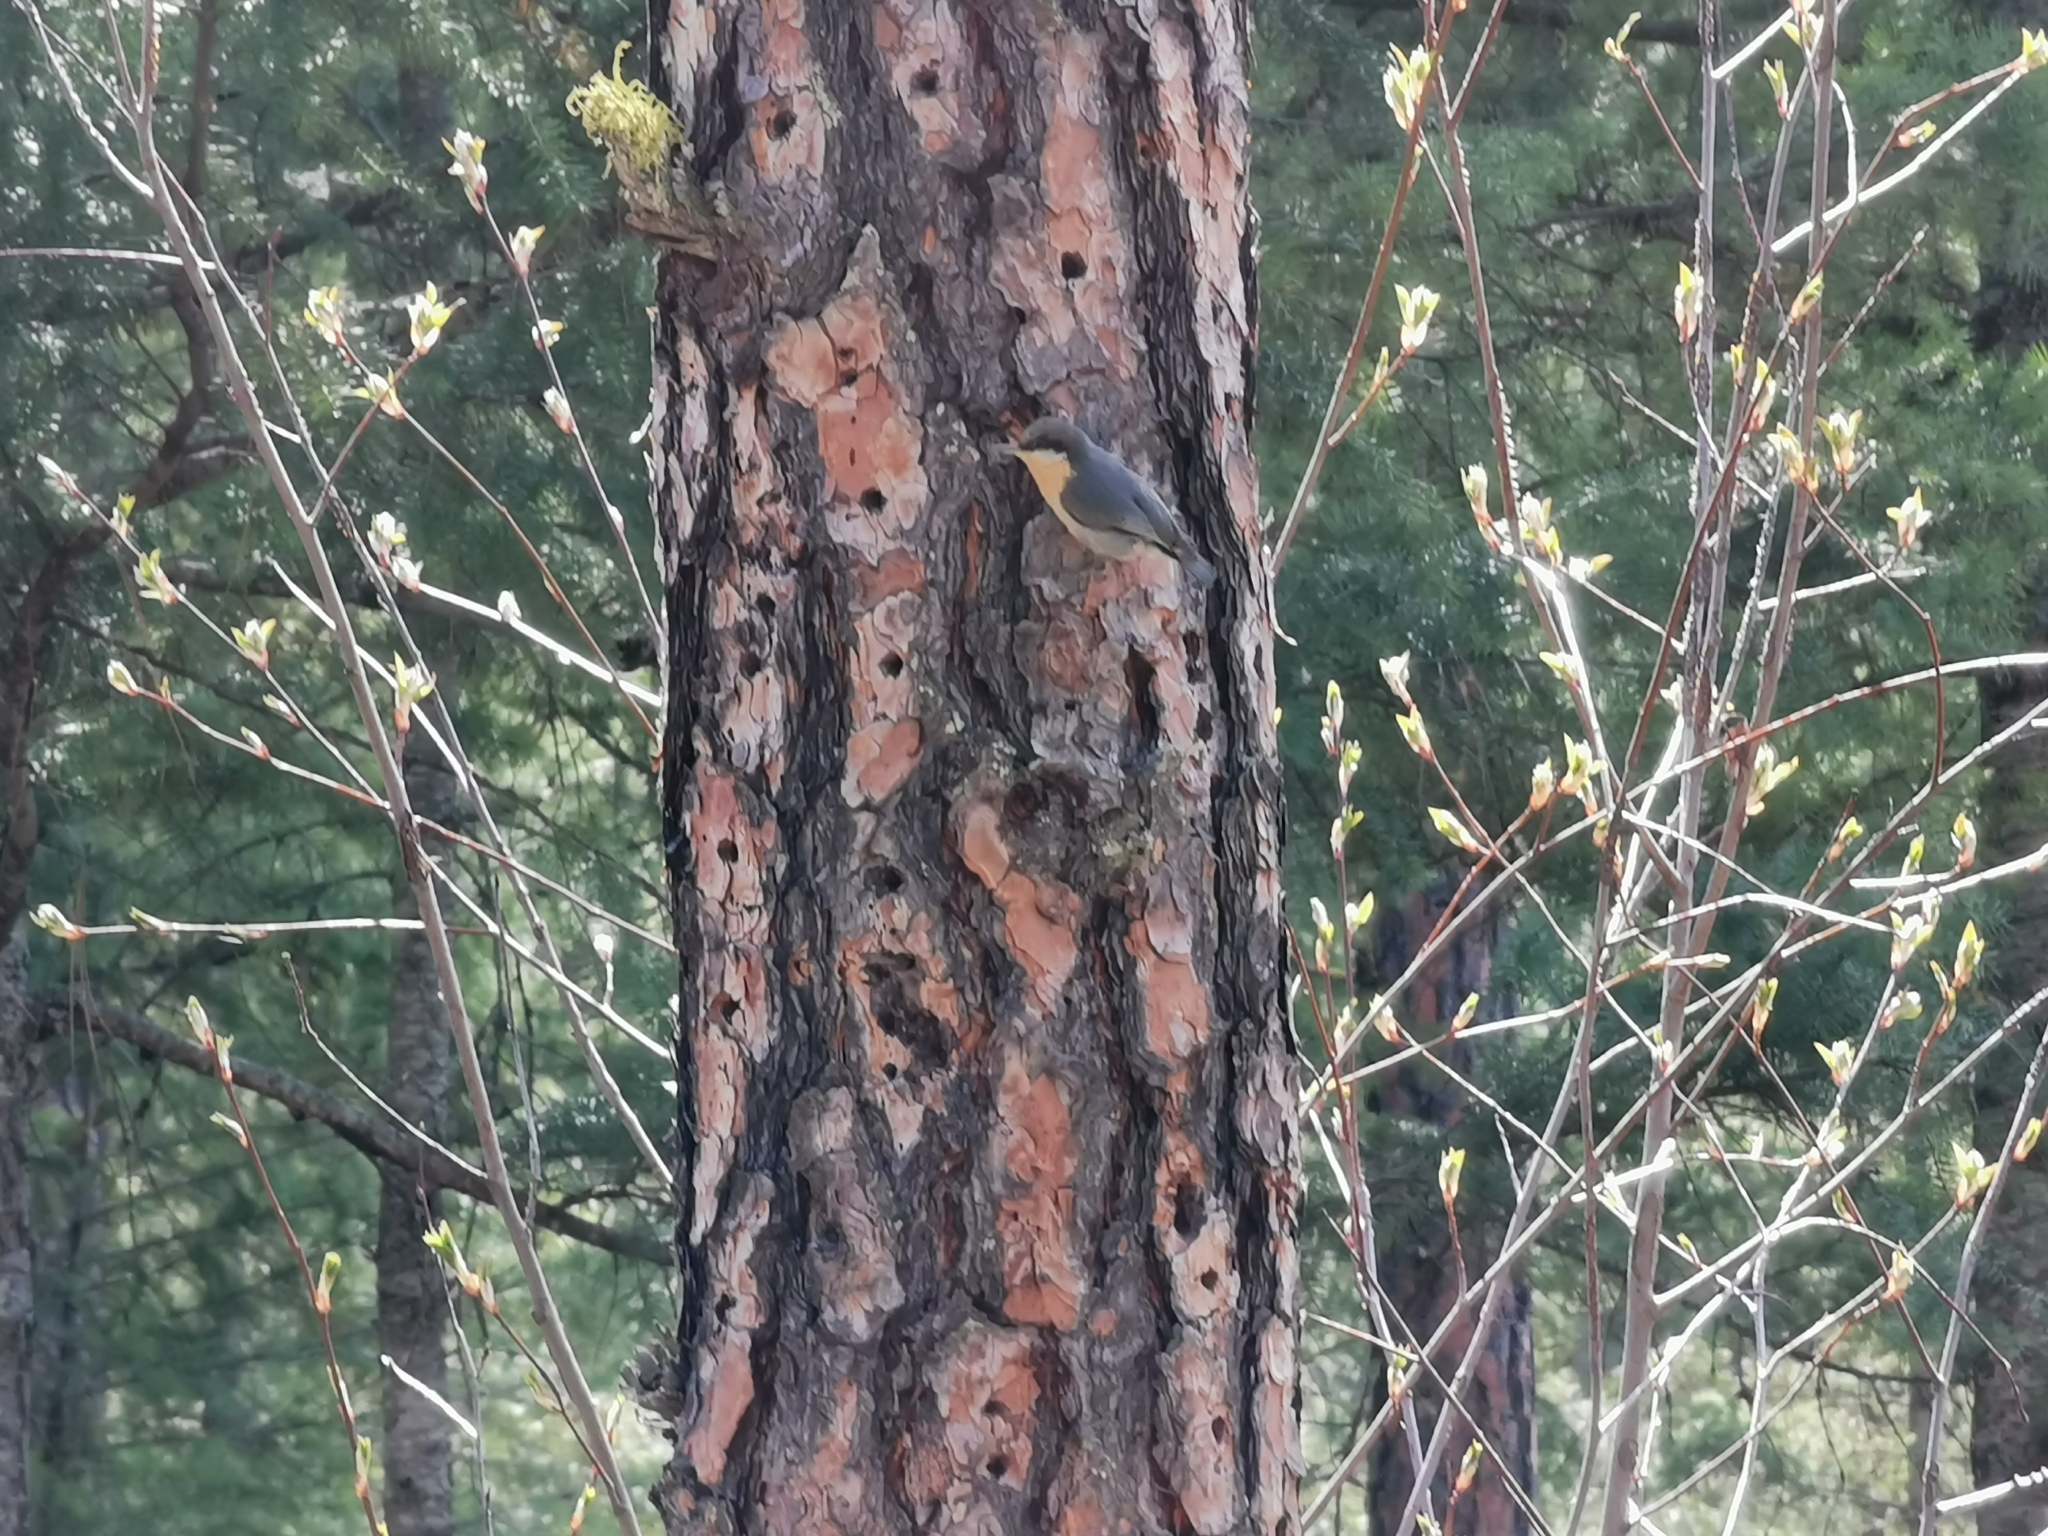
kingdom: Animalia
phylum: Chordata
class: Aves
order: Passeriformes
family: Sittidae
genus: Sitta
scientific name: Sitta pygmaea
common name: Pygmy nuthatch
